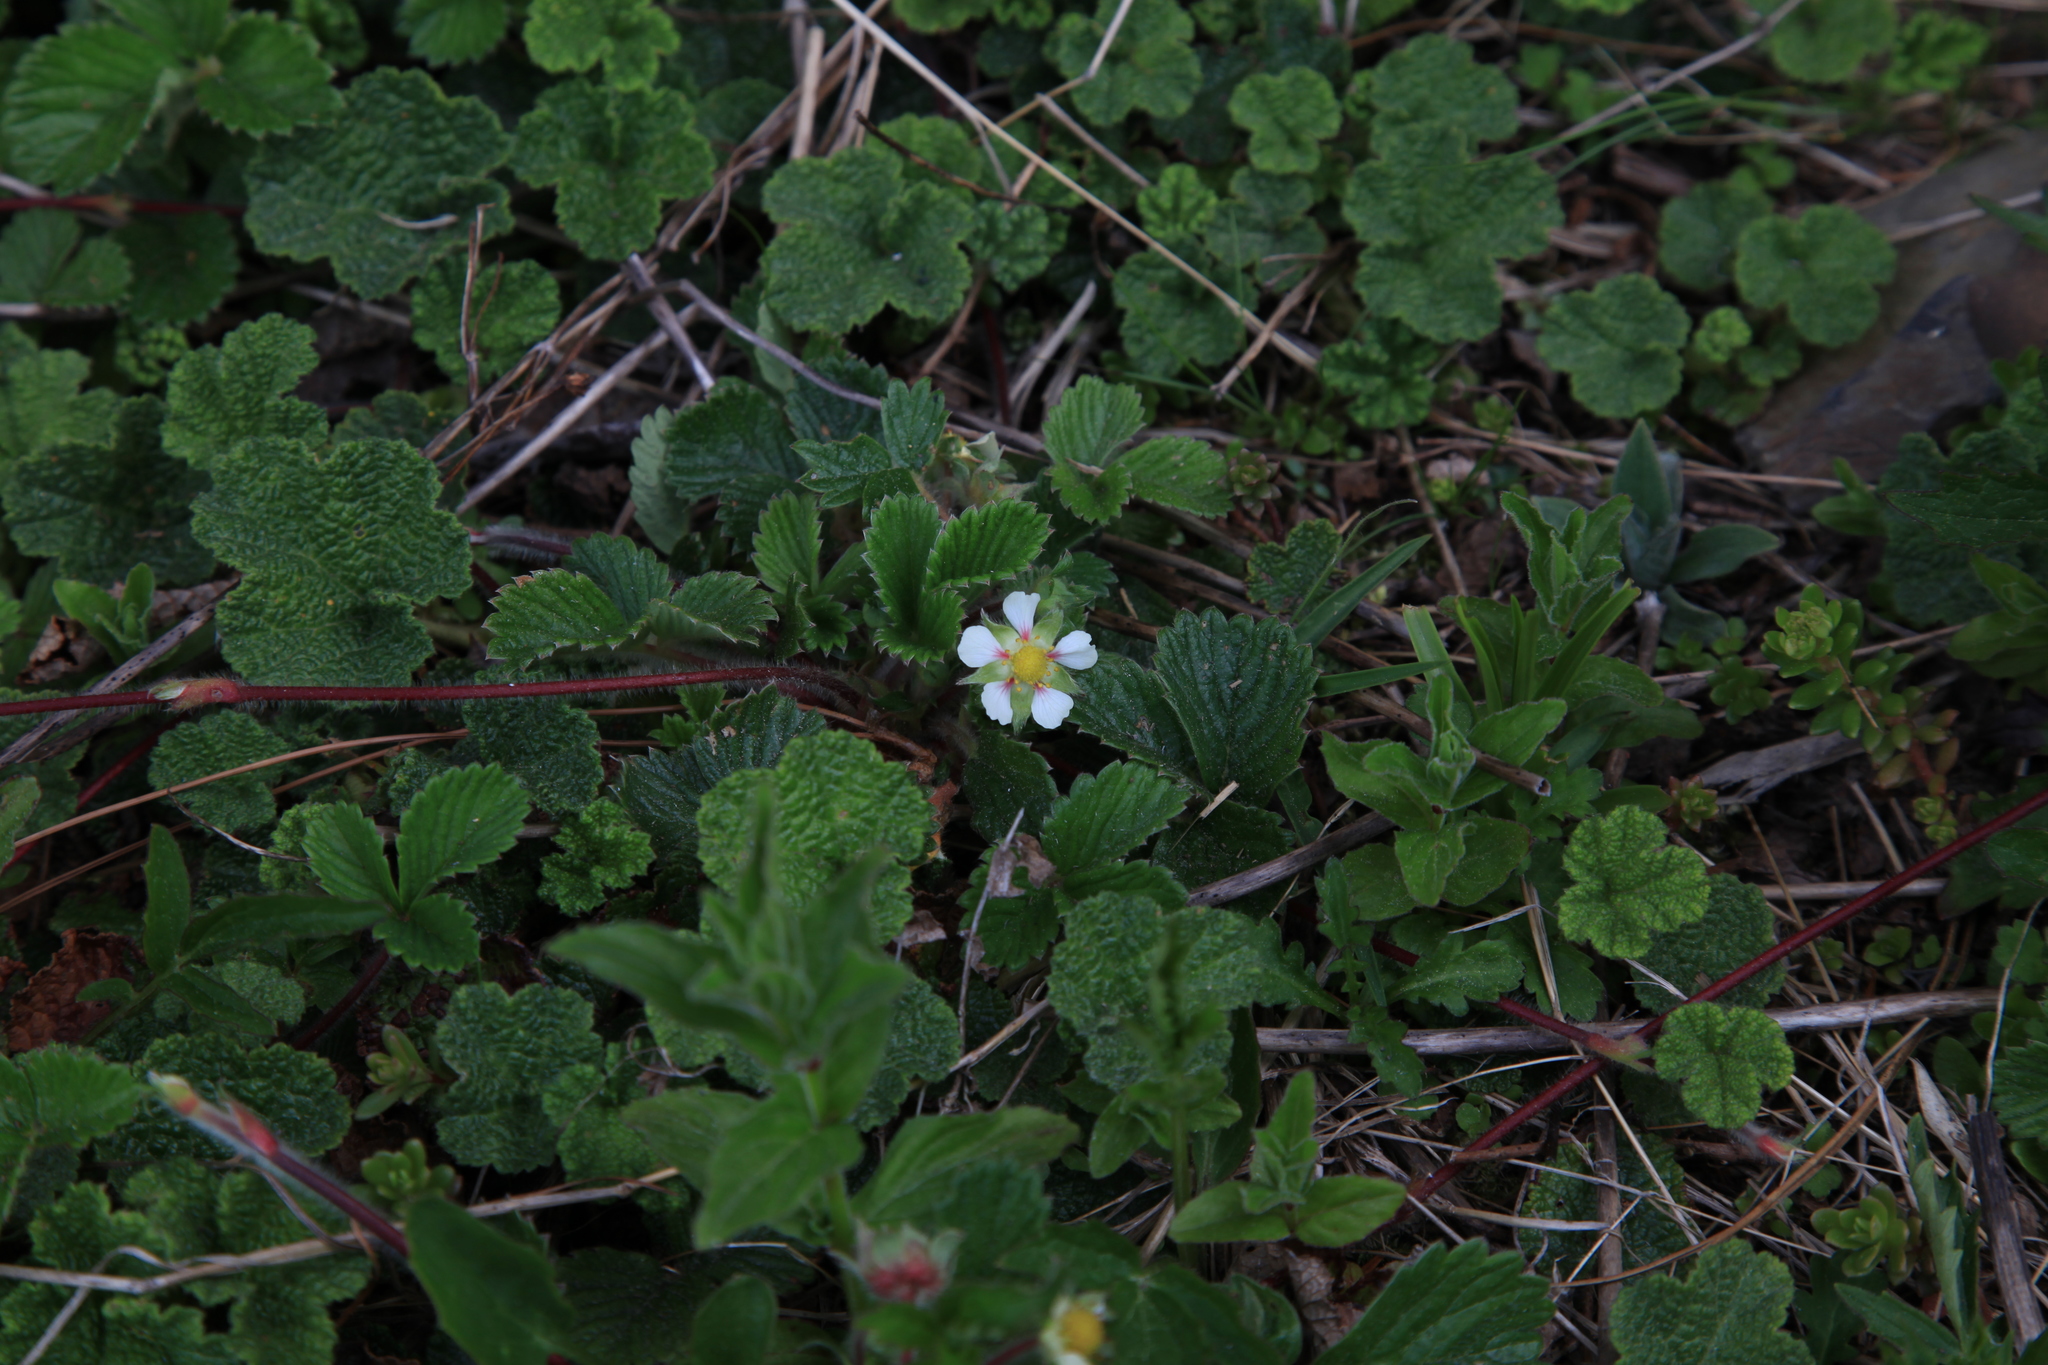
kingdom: Plantae
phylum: Tracheophyta
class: Magnoliopsida
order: Rosales
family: Rosaceae
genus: Fragaria
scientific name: Fragaria nilgerrensis
